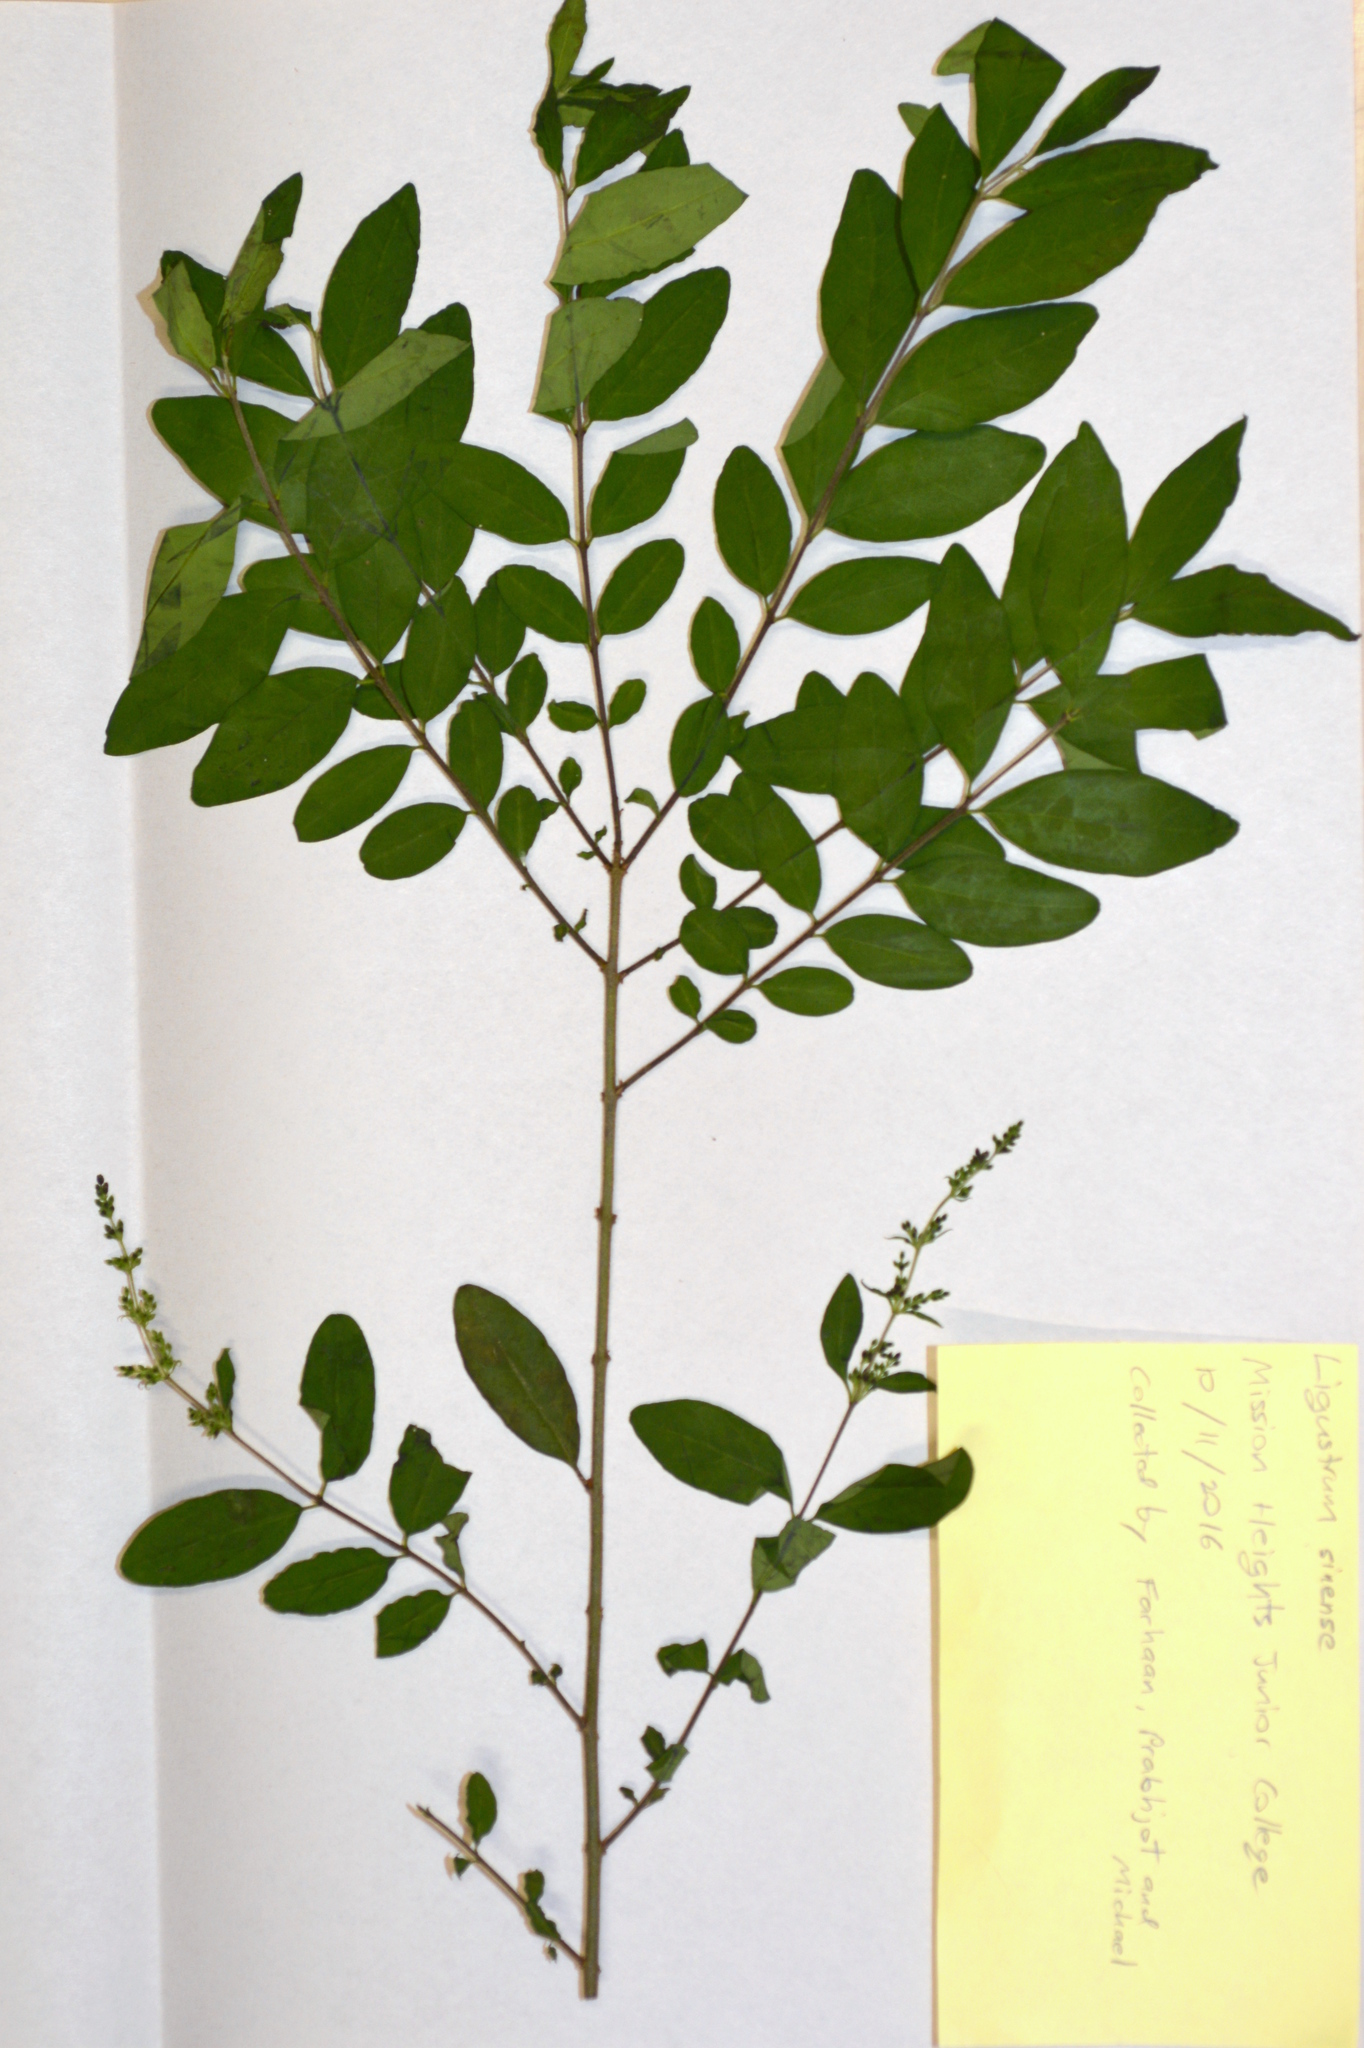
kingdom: Plantae
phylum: Tracheophyta
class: Magnoliopsida
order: Lamiales
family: Oleaceae
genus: Ligustrum
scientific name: Ligustrum sinense
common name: Chinese privet
